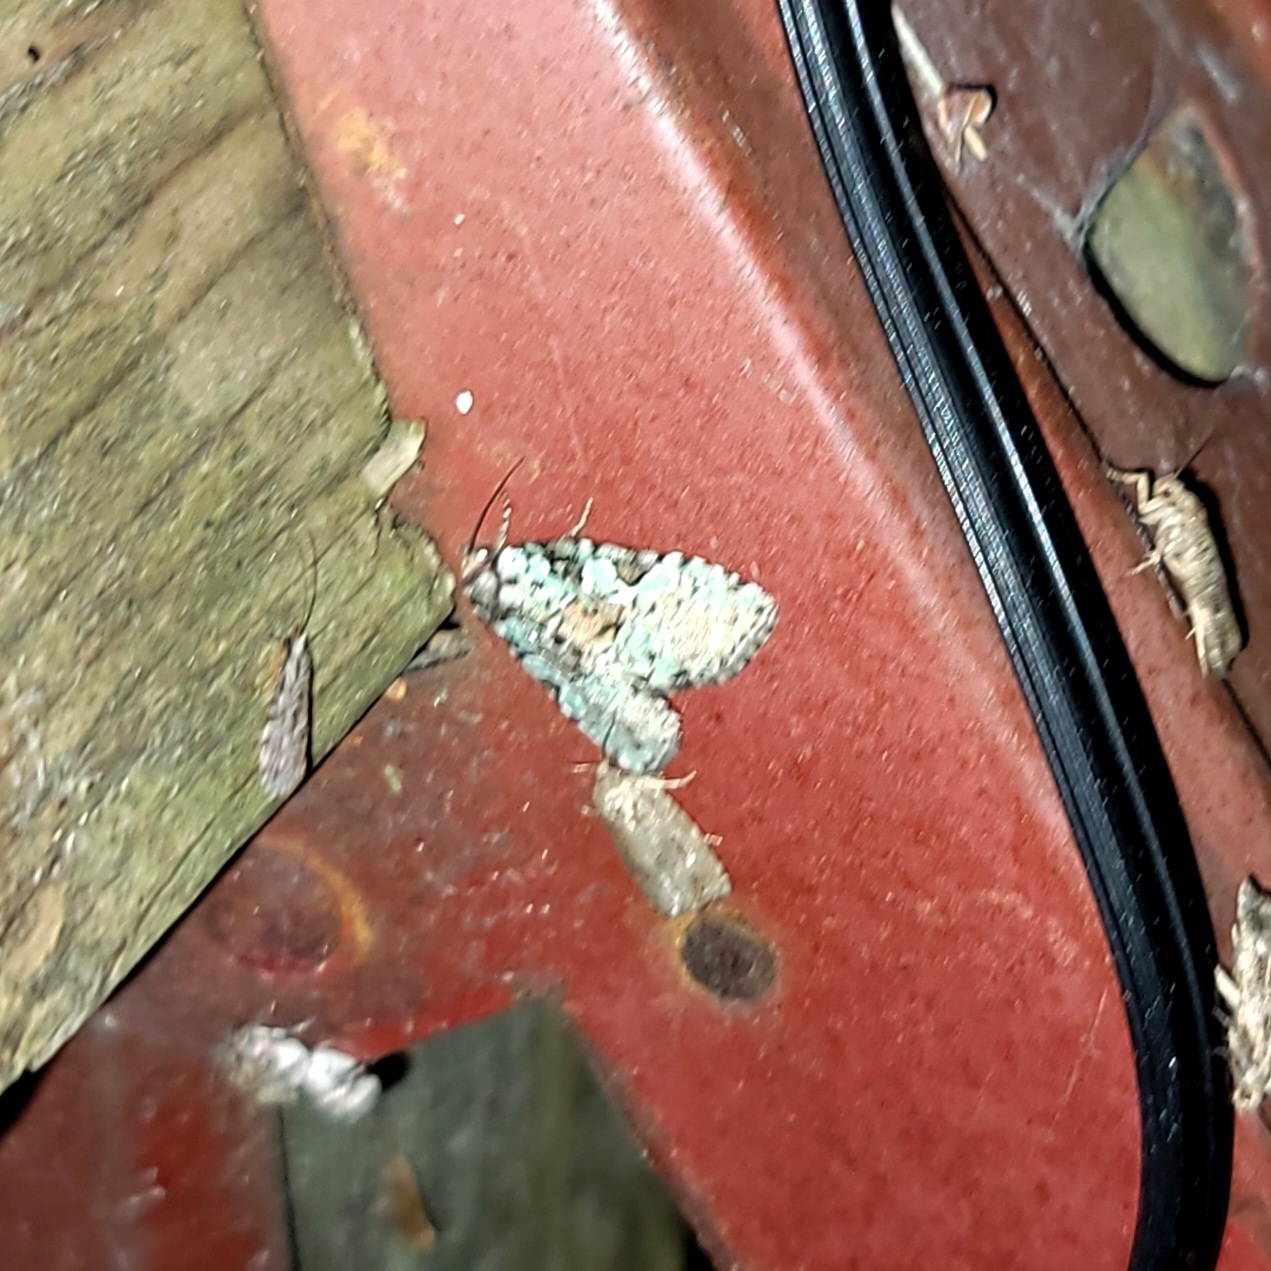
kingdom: Animalia
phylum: Arthropoda
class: Insecta
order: Lepidoptera
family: Noctuidae
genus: Leuconycta
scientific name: Leuconycta lepidula
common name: Marbled-green leuconycta moth
